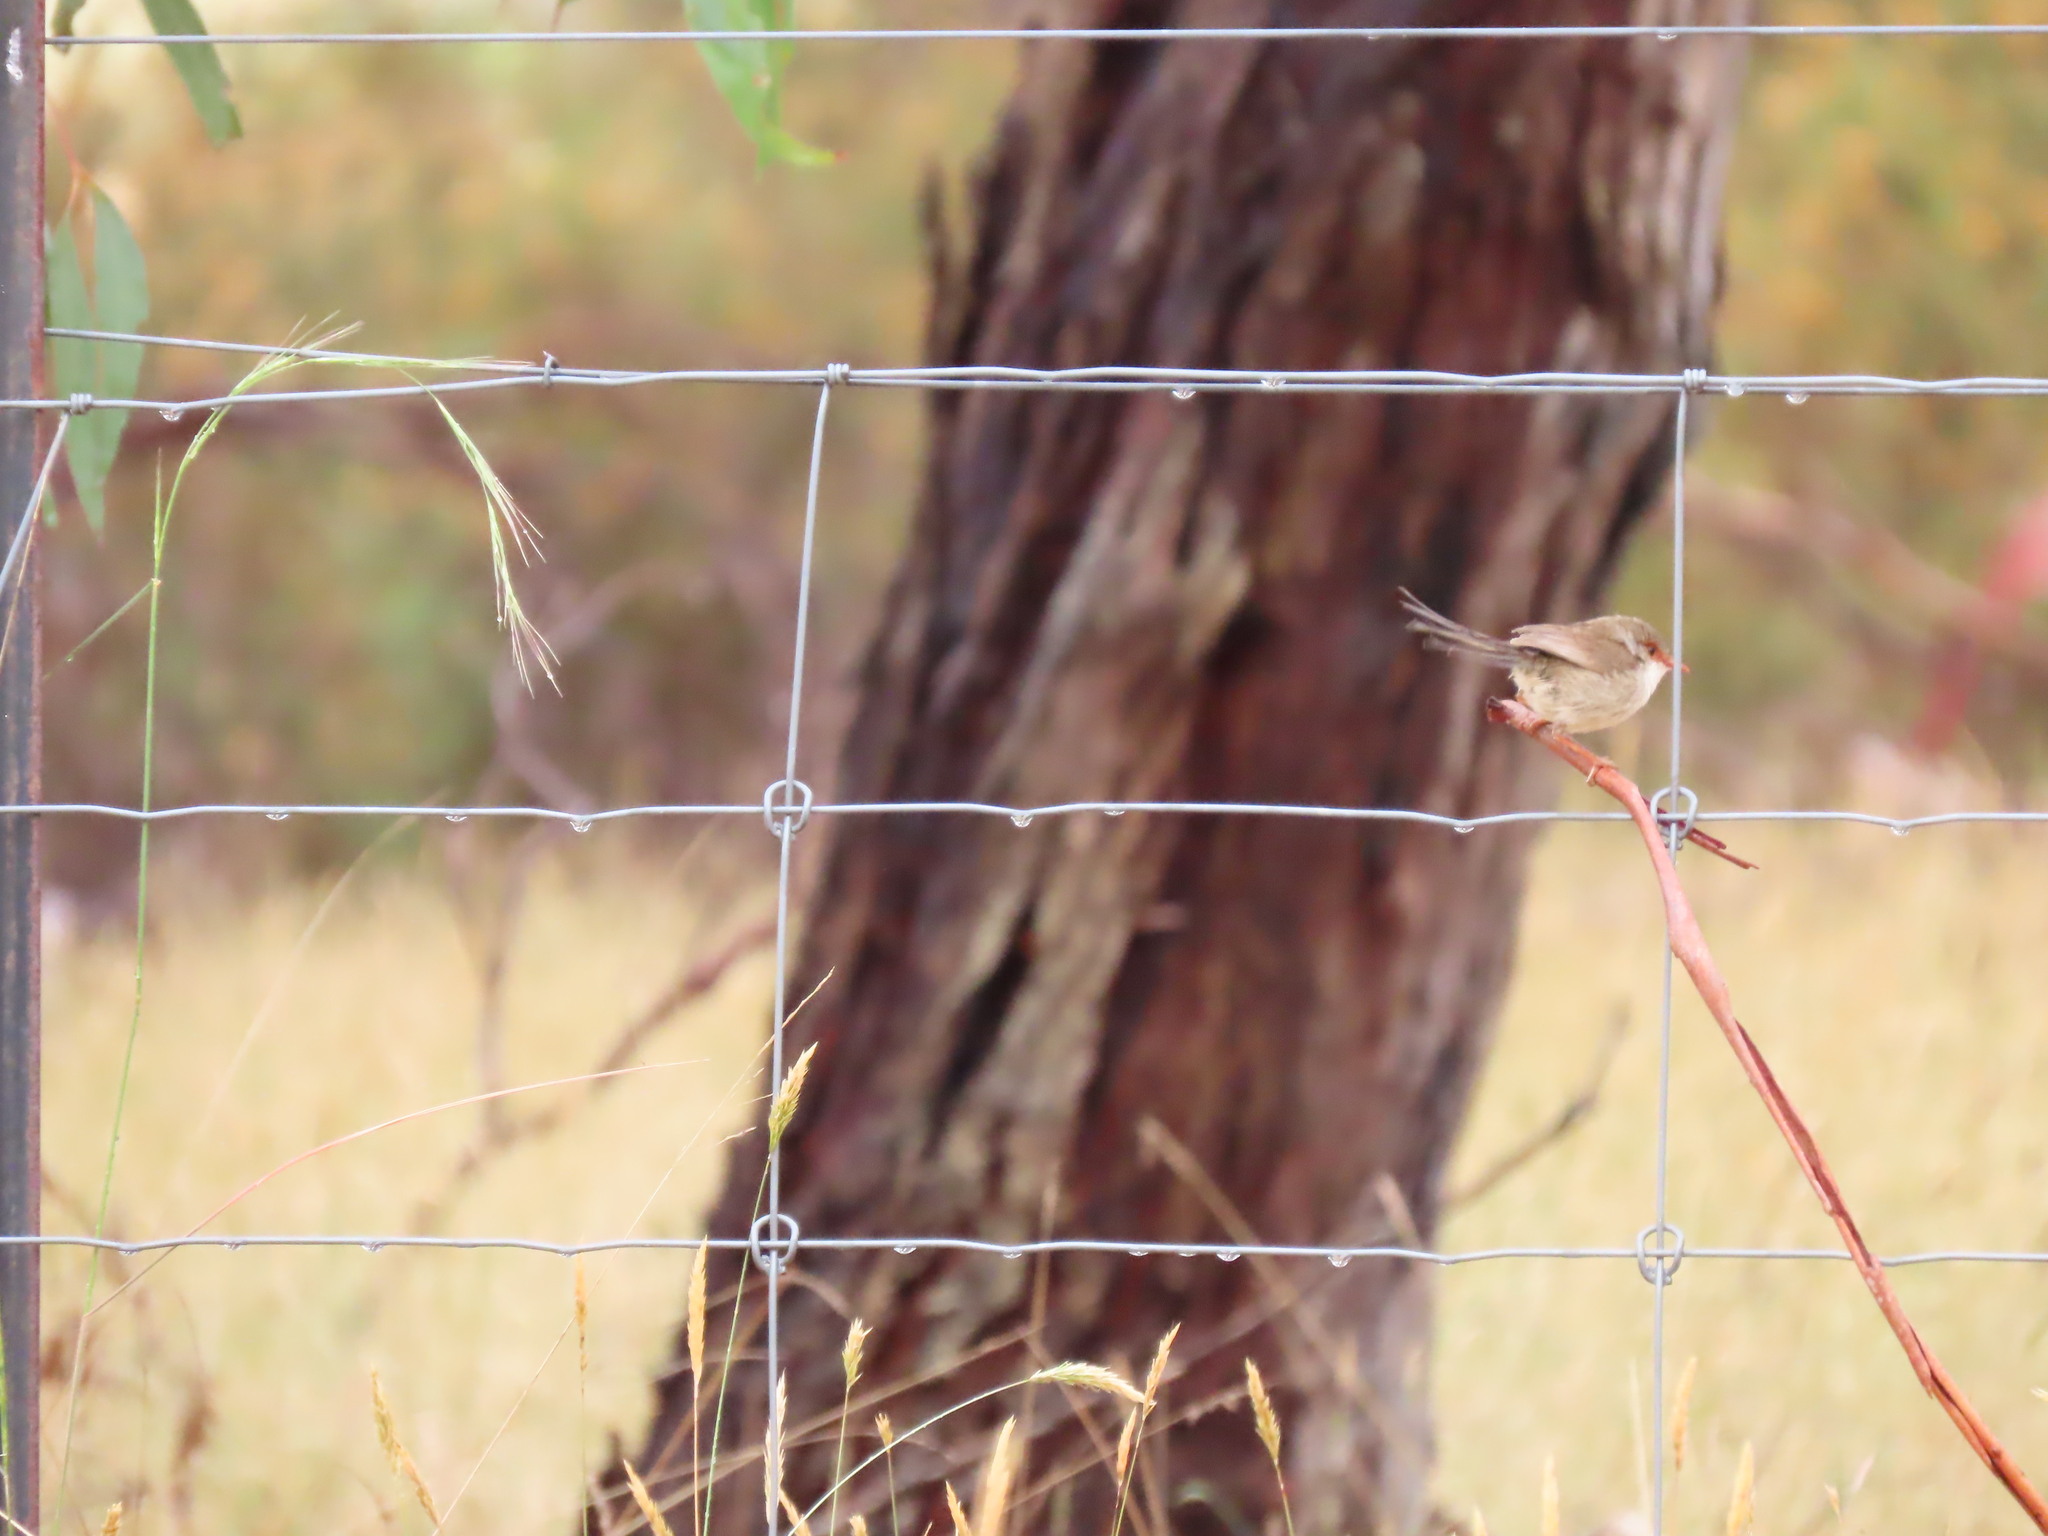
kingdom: Animalia
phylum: Chordata
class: Aves
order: Passeriformes
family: Maluridae
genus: Malurus
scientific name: Malurus cyaneus
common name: Superb fairywren
